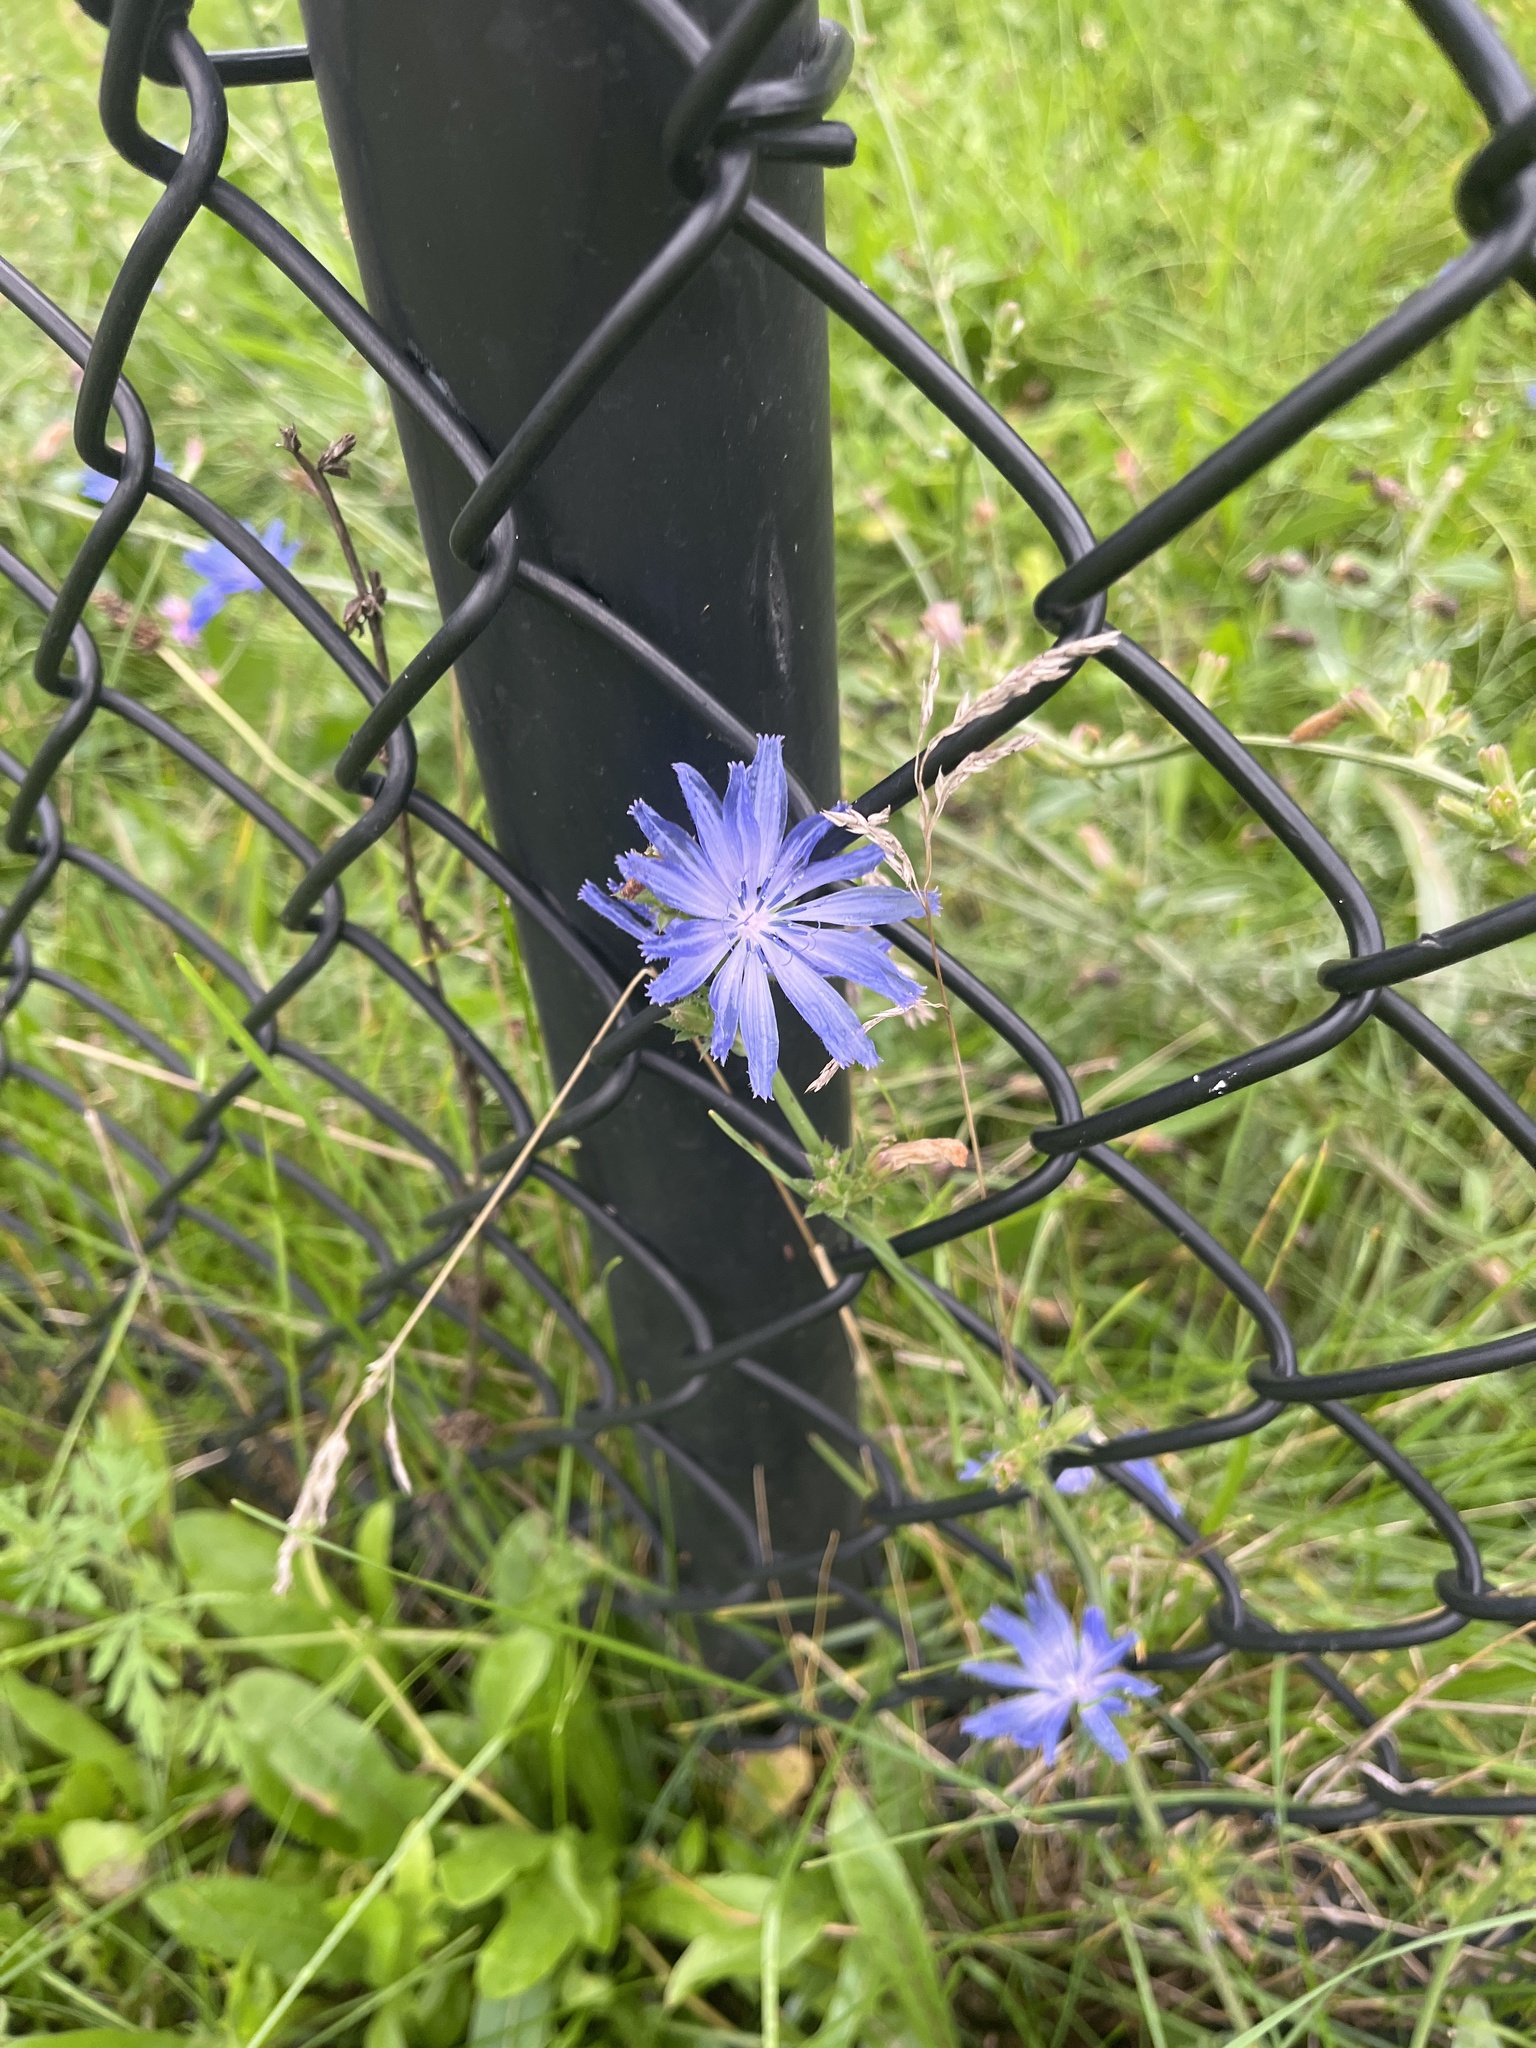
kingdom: Plantae
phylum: Tracheophyta
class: Magnoliopsida
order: Asterales
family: Asteraceae
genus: Cichorium
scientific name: Cichorium intybus
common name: Chicory
